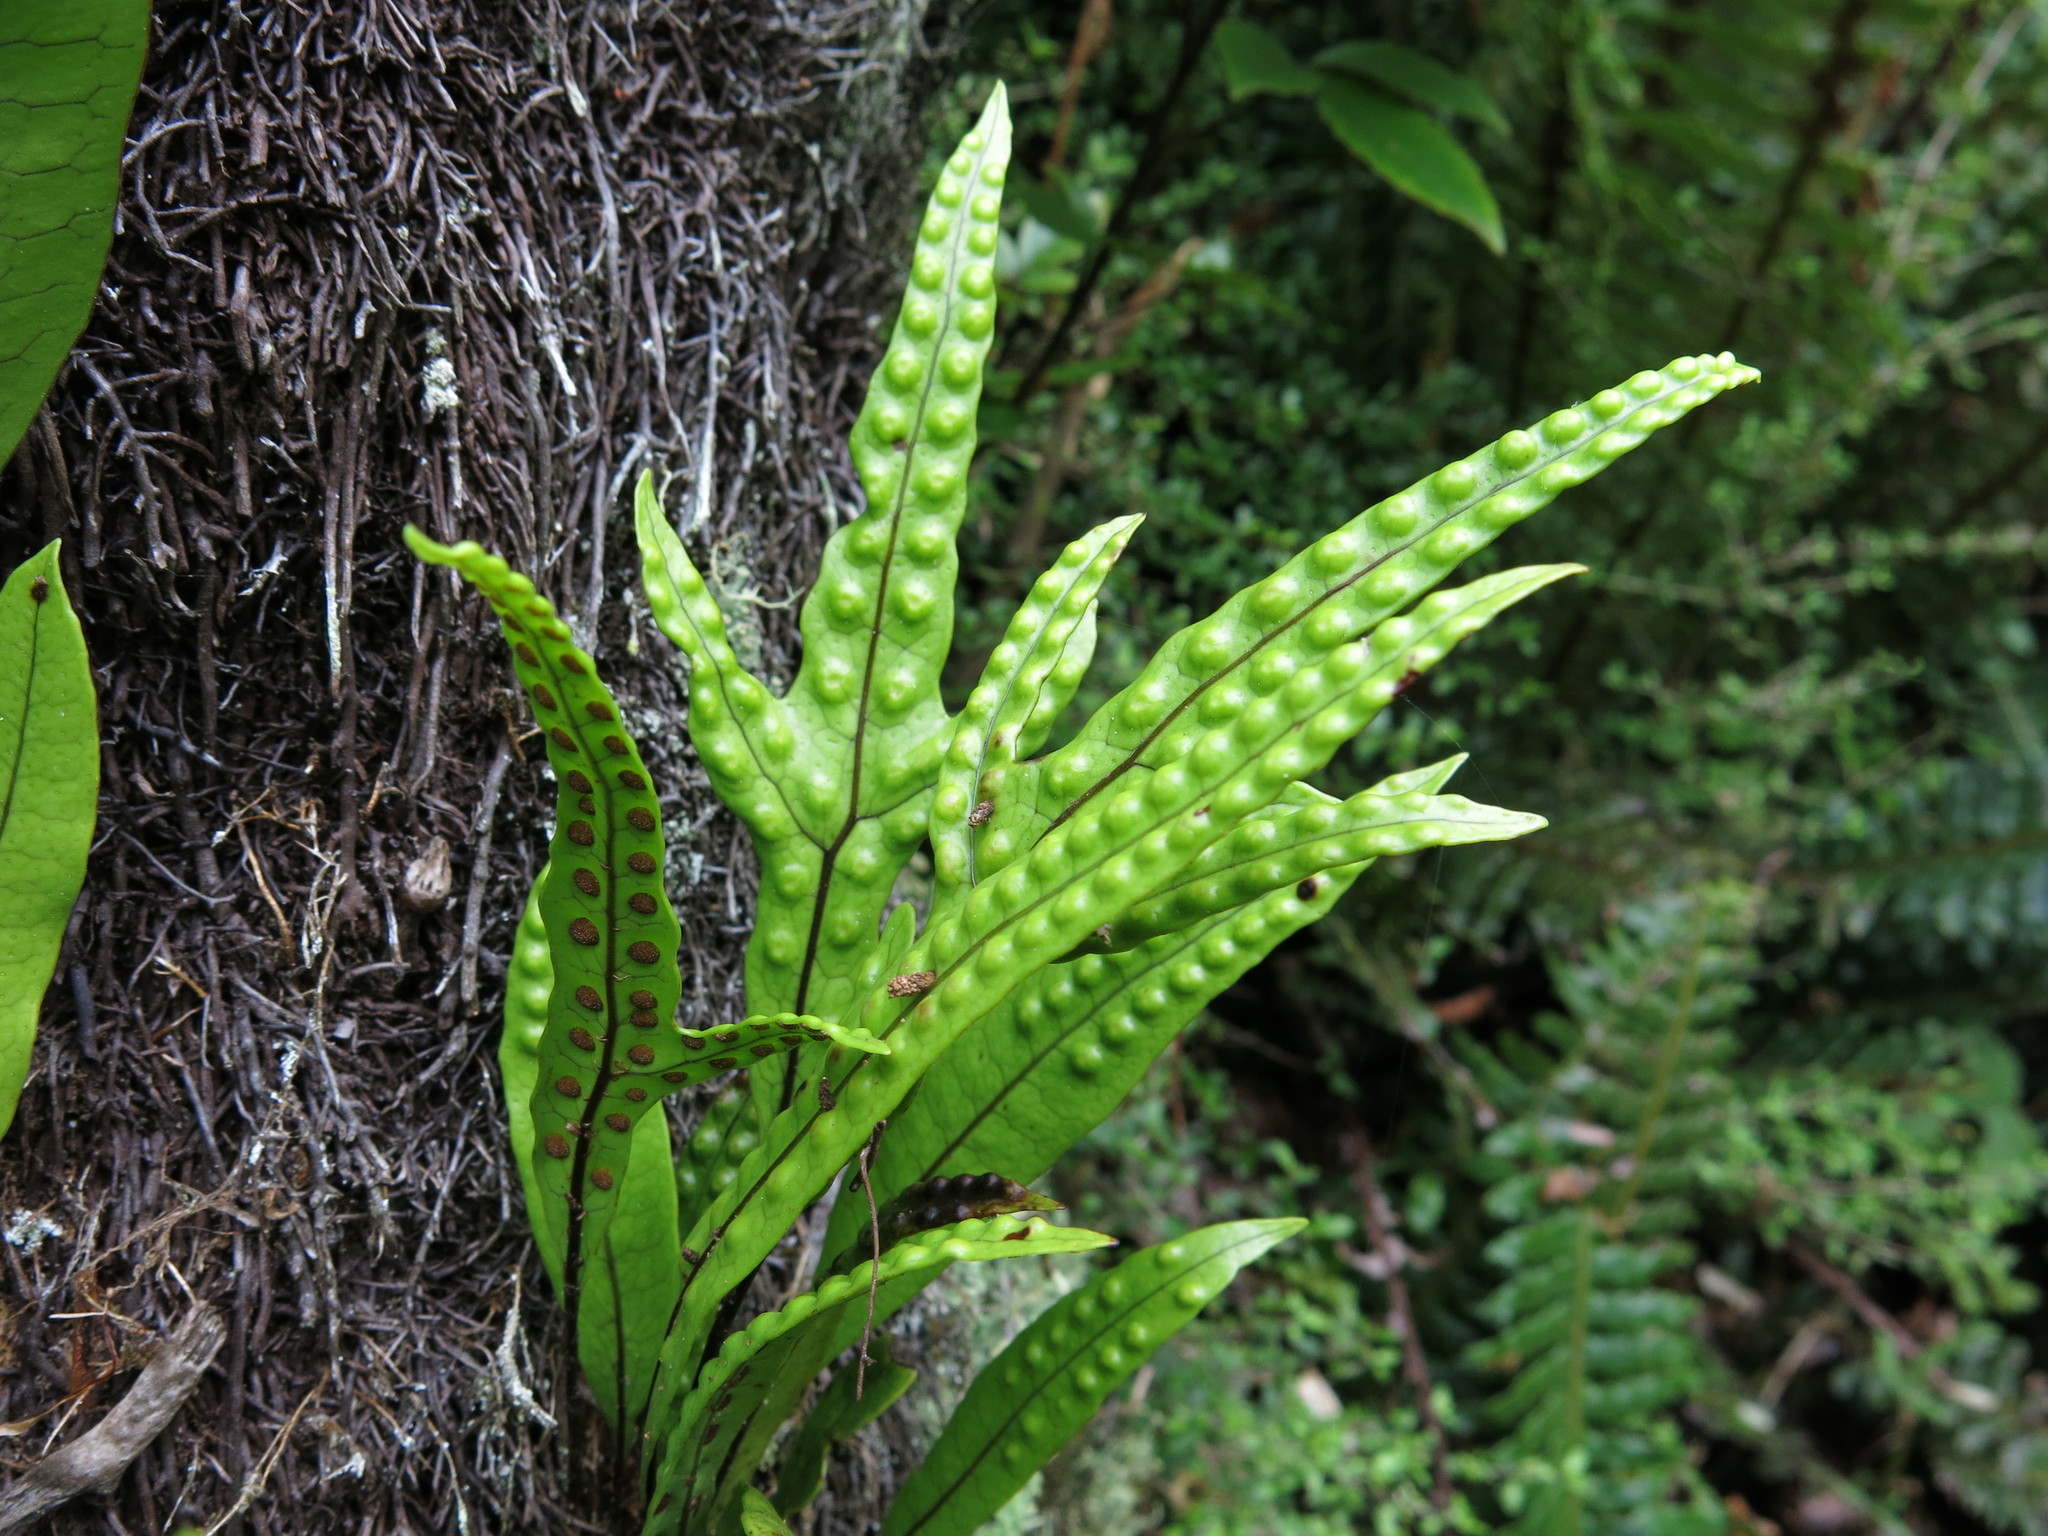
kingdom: Plantae
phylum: Tracheophyta
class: Polypodiopsida
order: Polypodiales
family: Polypodiaceae
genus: Lecanopteris
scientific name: Lecanopteris pustulata
